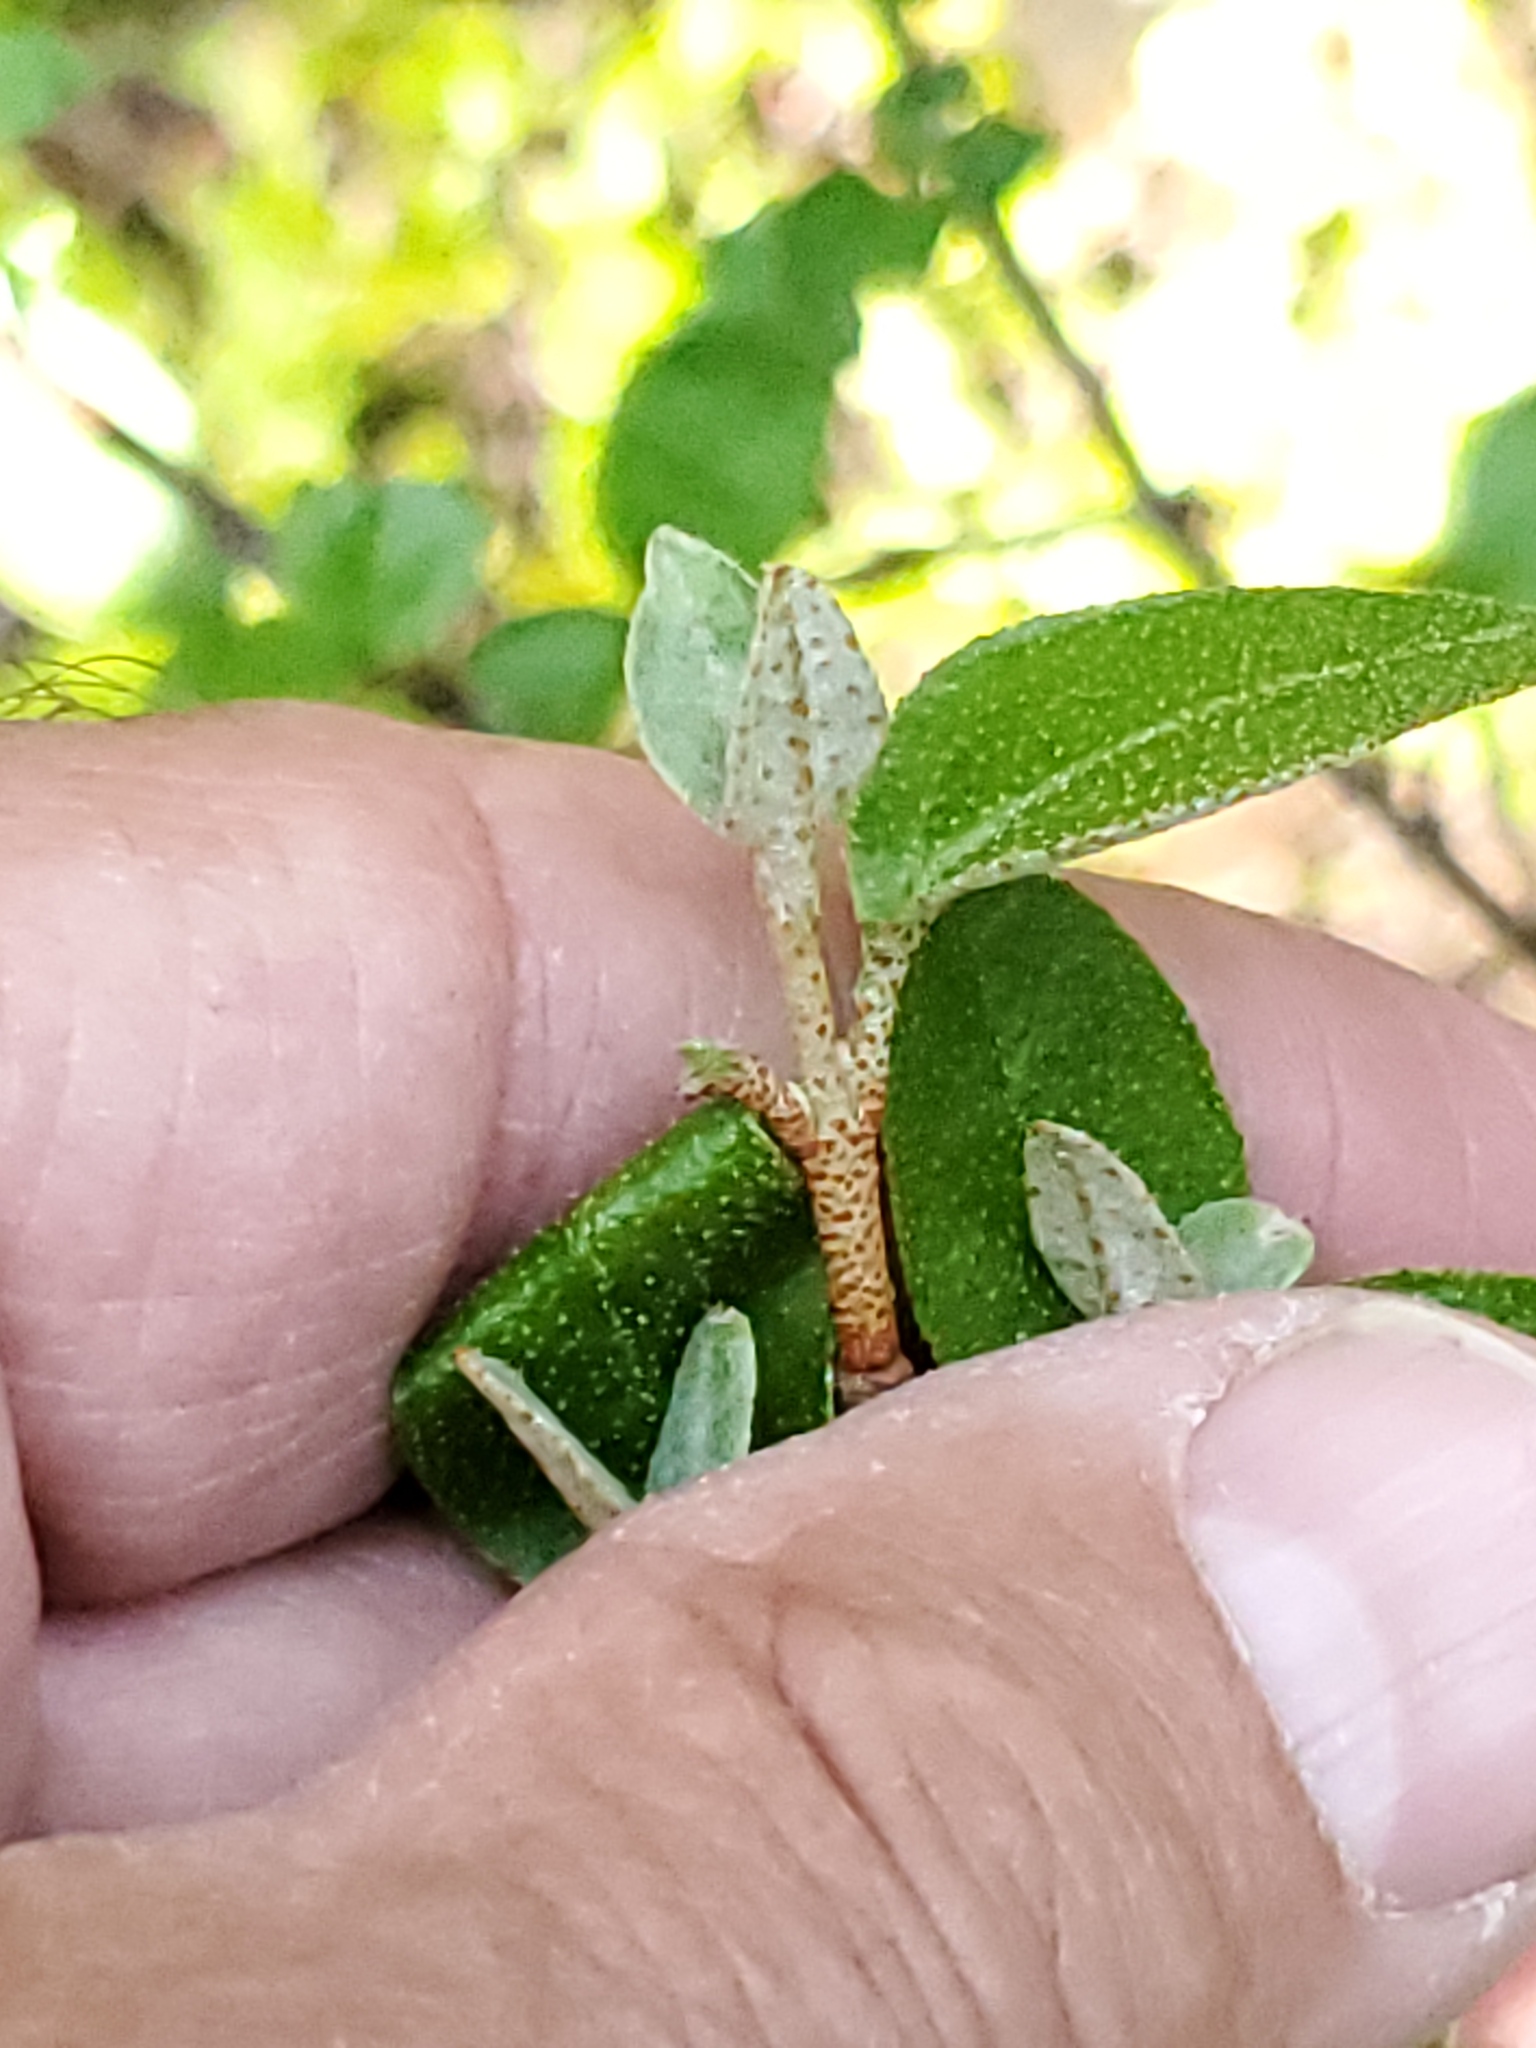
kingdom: Plantae
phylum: Tracheophyta
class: Magnoliopsida
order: Rosales
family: Elaeagnaceae
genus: Shepherdia
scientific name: Shepherdia canadensis
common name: Soapberry
